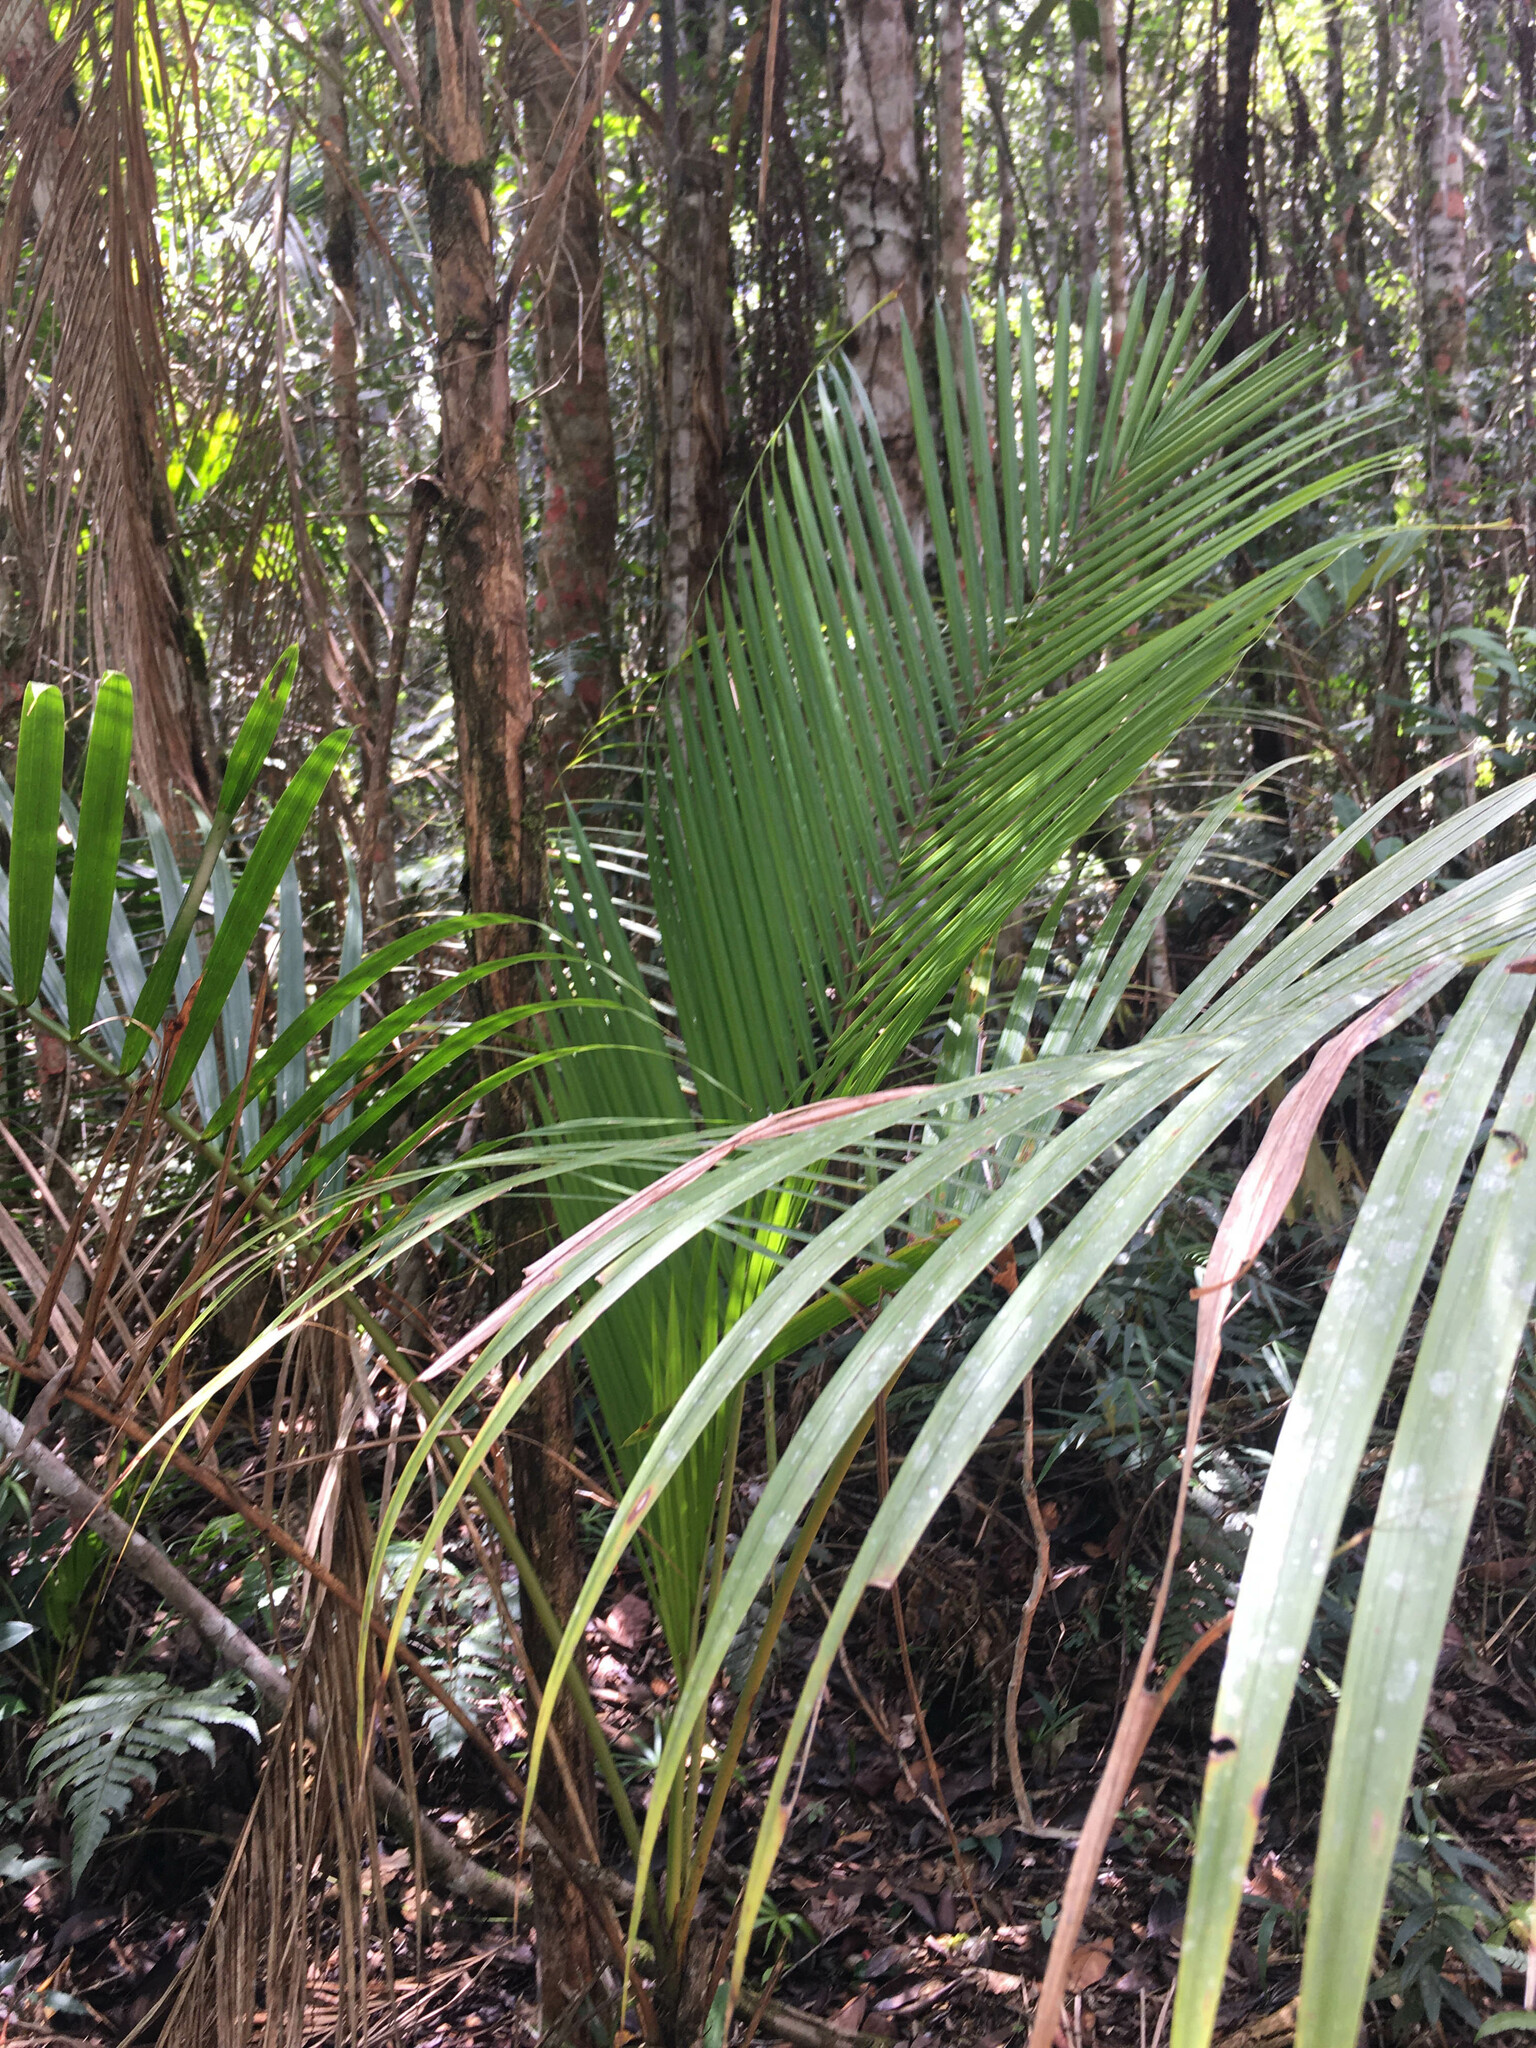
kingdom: Plantae
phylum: Tracheophyta
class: Liliopsida
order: Arecales
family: Arecaceae
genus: Euterpe
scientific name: Euterpe edulis
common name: Assai palm
